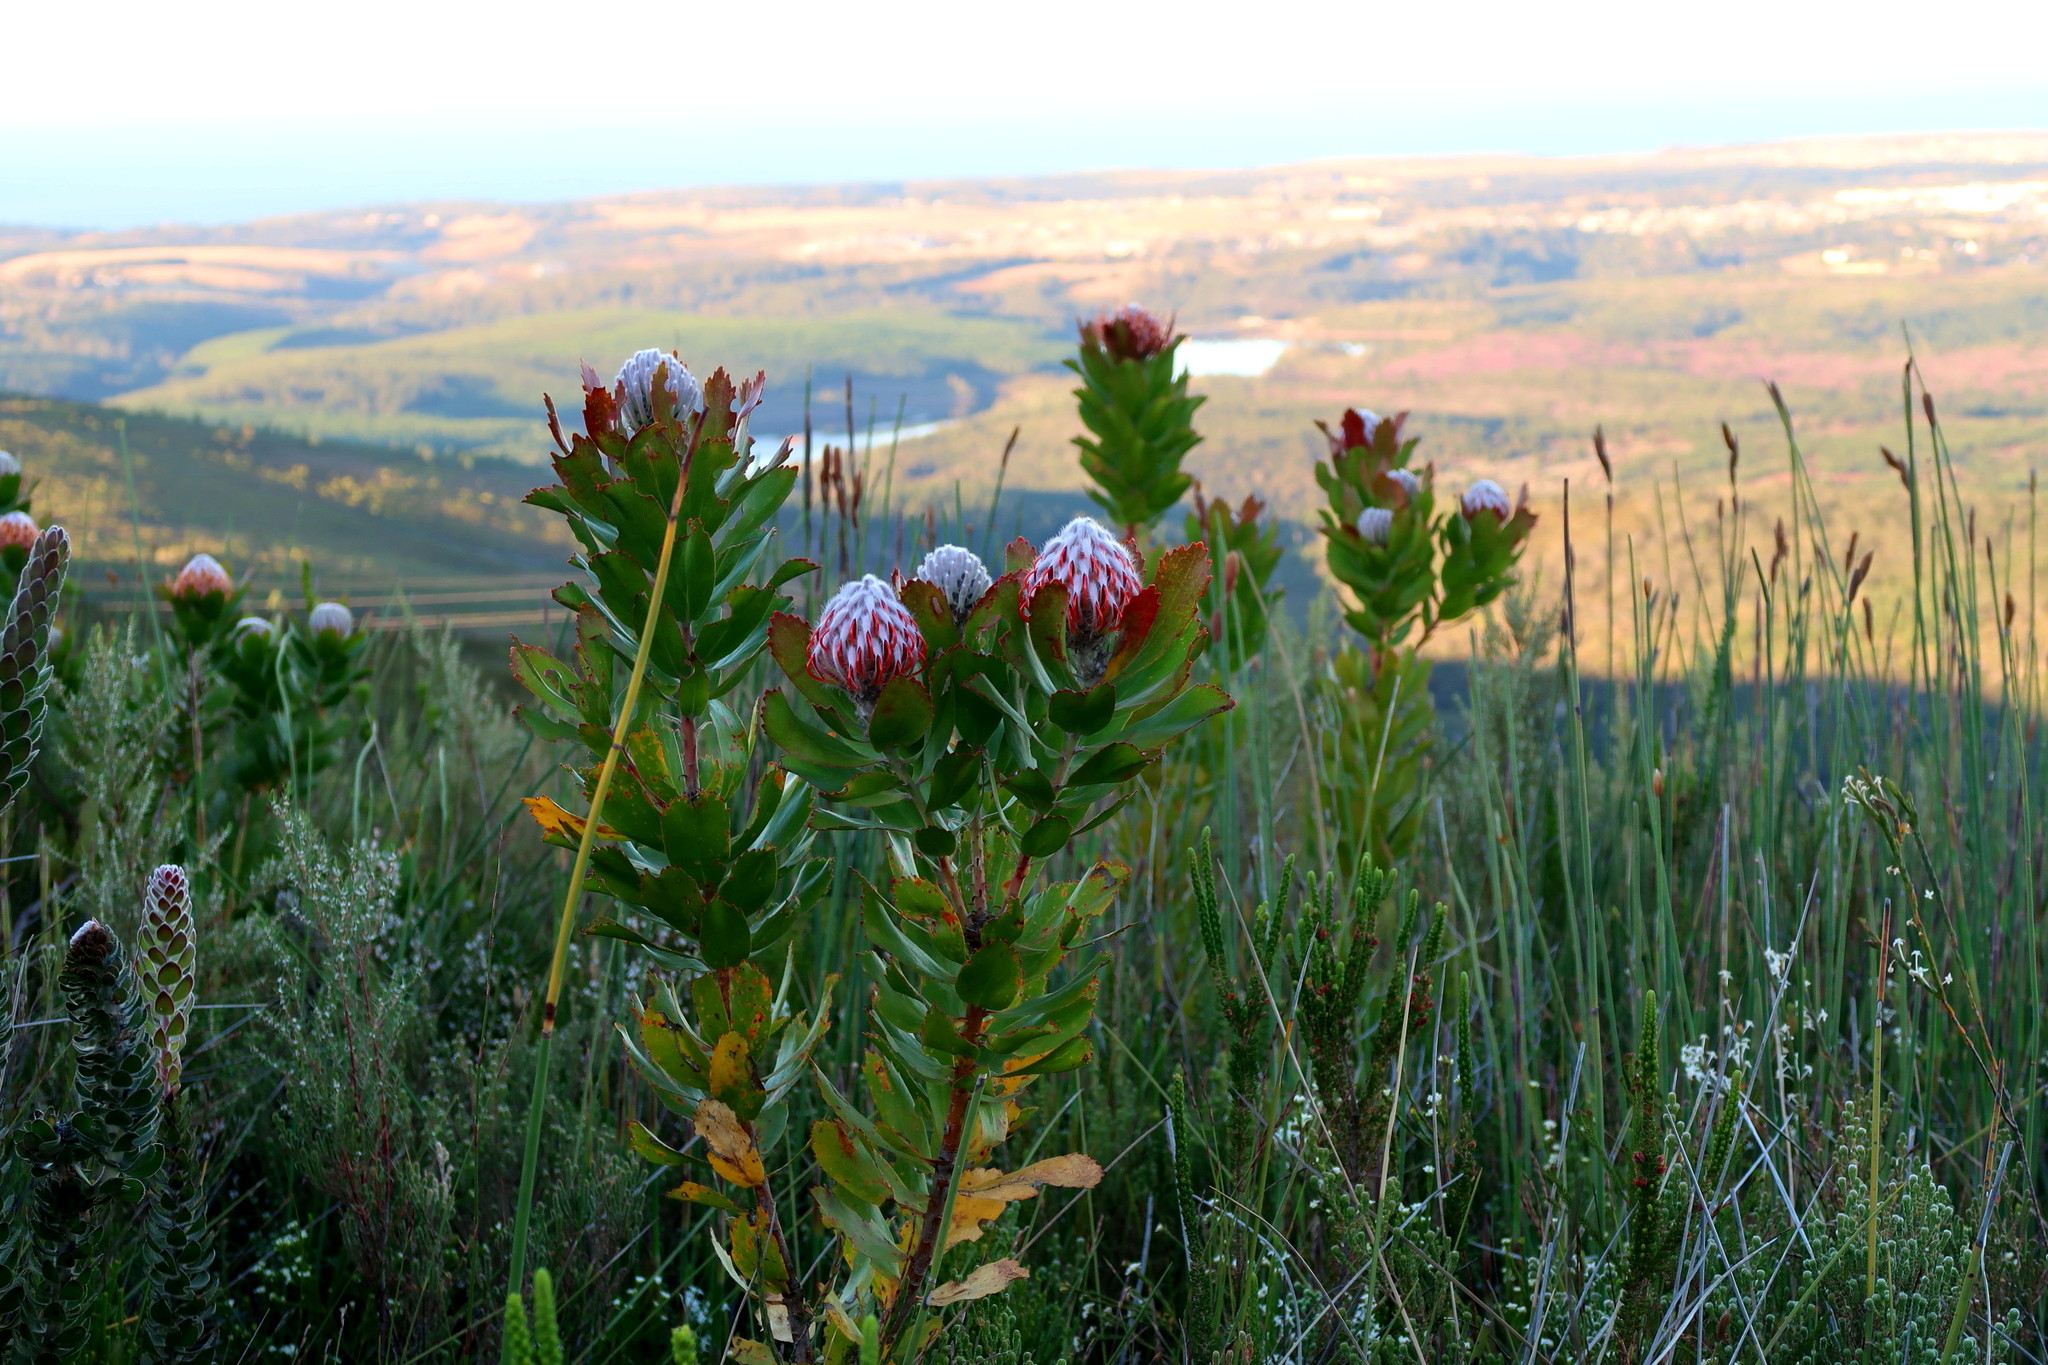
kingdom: Plantae
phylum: Tracheophyta
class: Magnoliopsida
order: Proteales
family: Proteaceae
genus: Leucospermum
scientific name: Leucospermum glabrum
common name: Outeniqua pincushion
